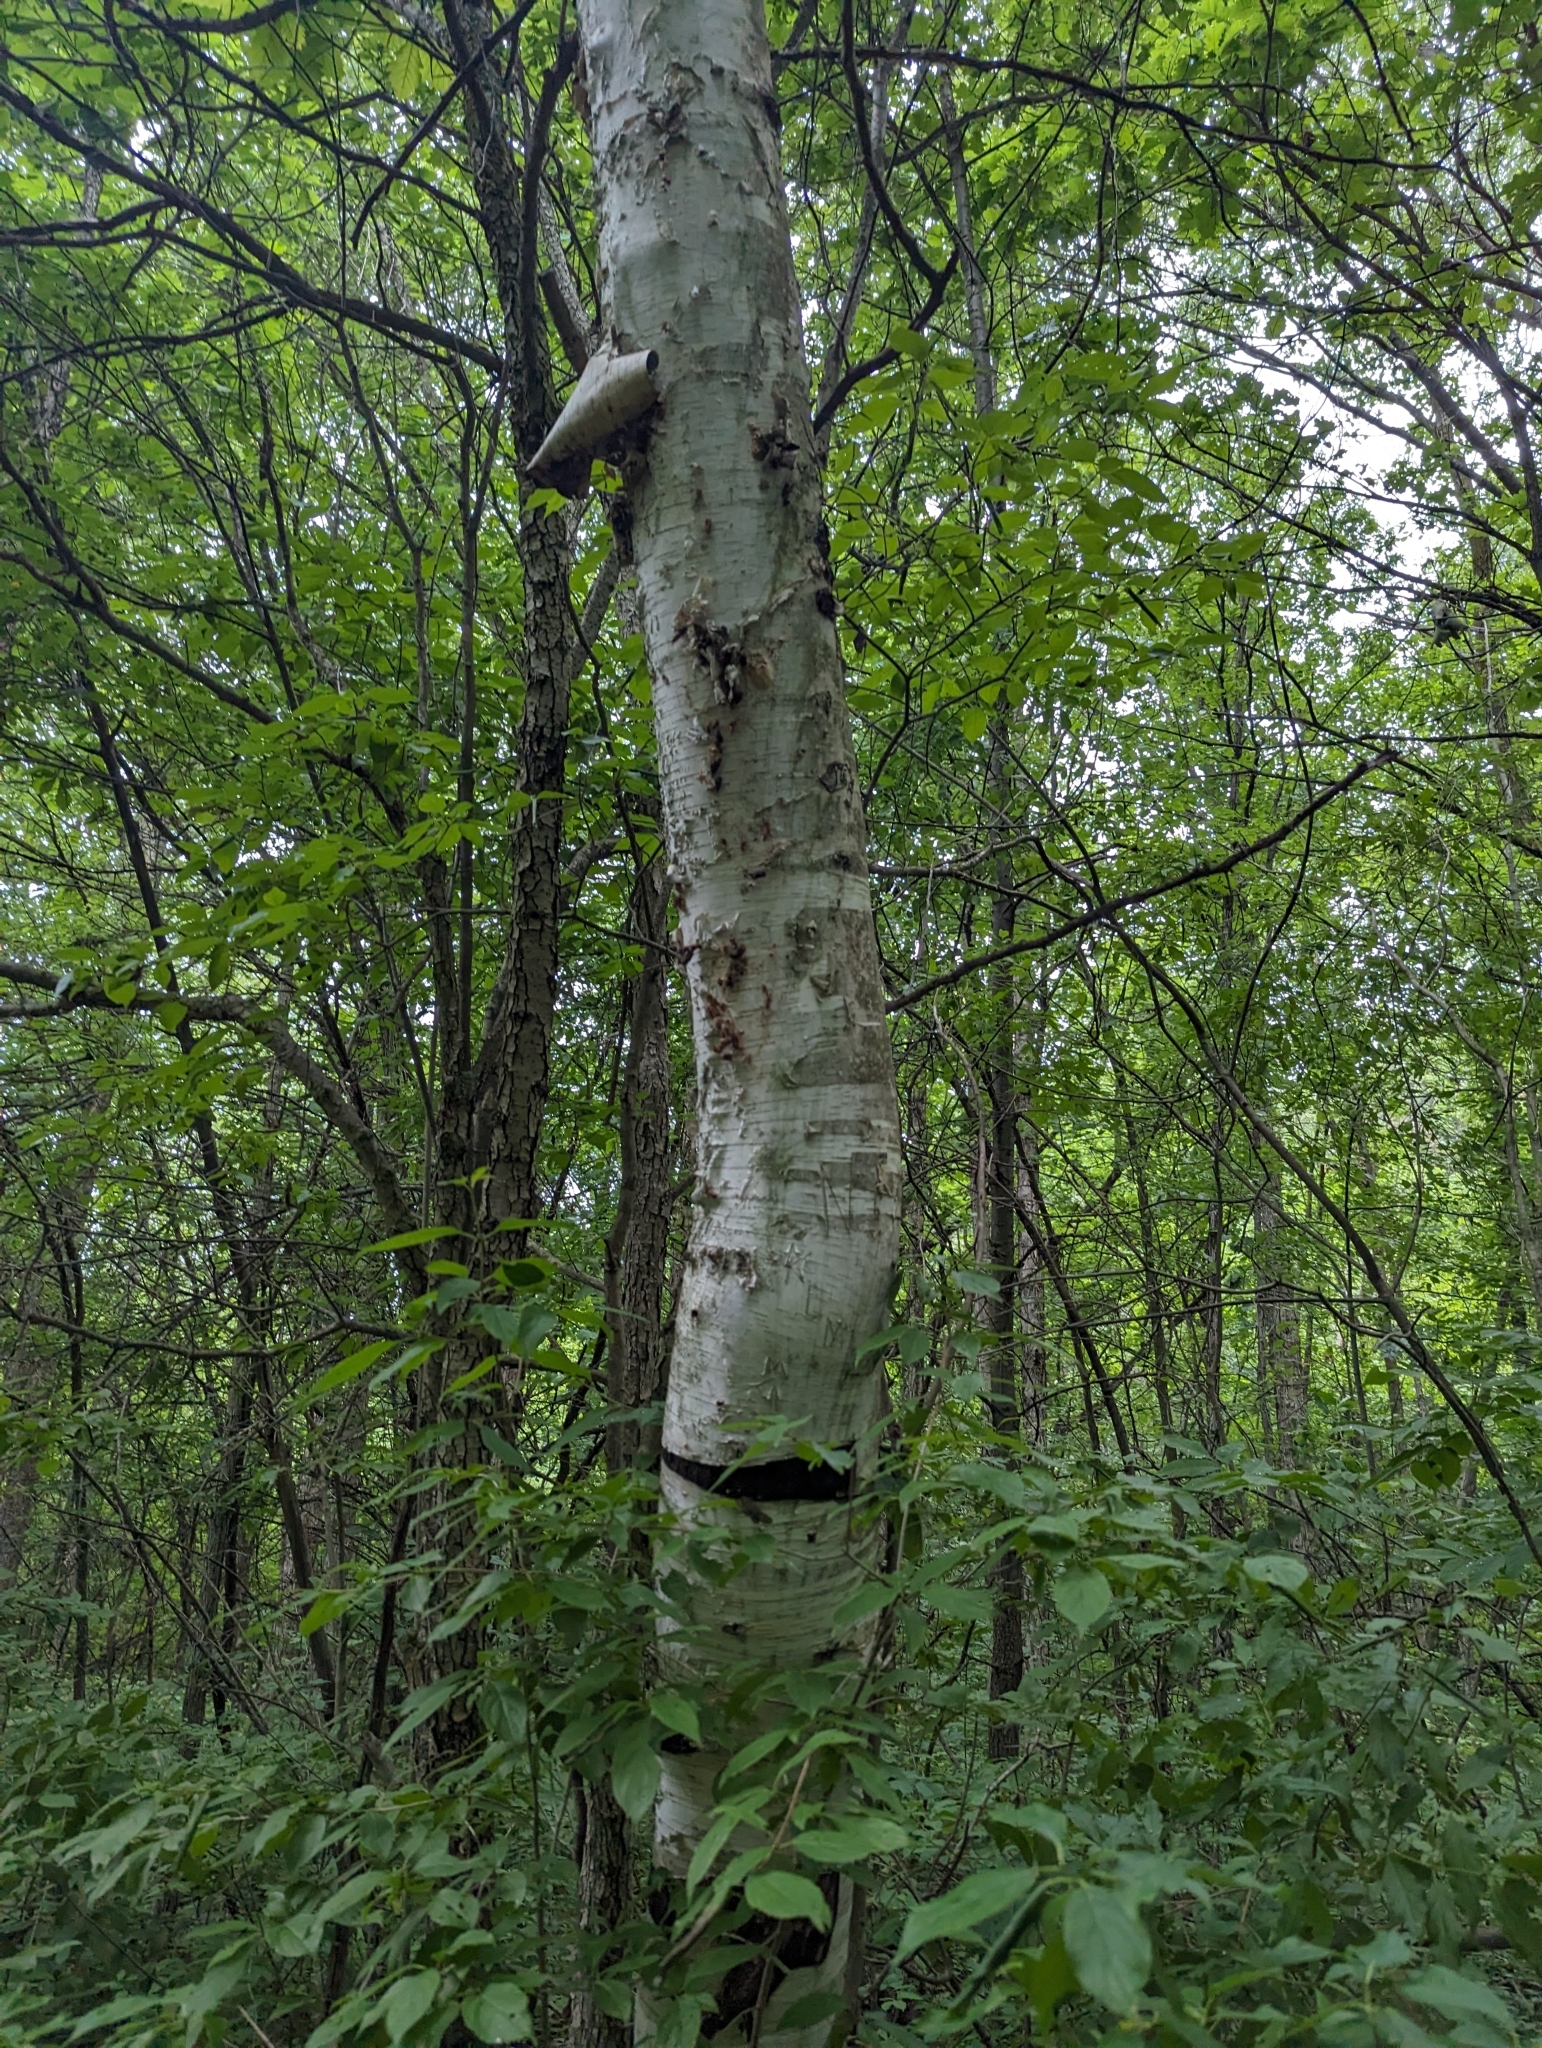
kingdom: Plantae
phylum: Tracheophyta
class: Magnoliopsida
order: Fagales
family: Betulaceae
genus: Betula
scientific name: Betula papyrifera
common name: Paper birch
